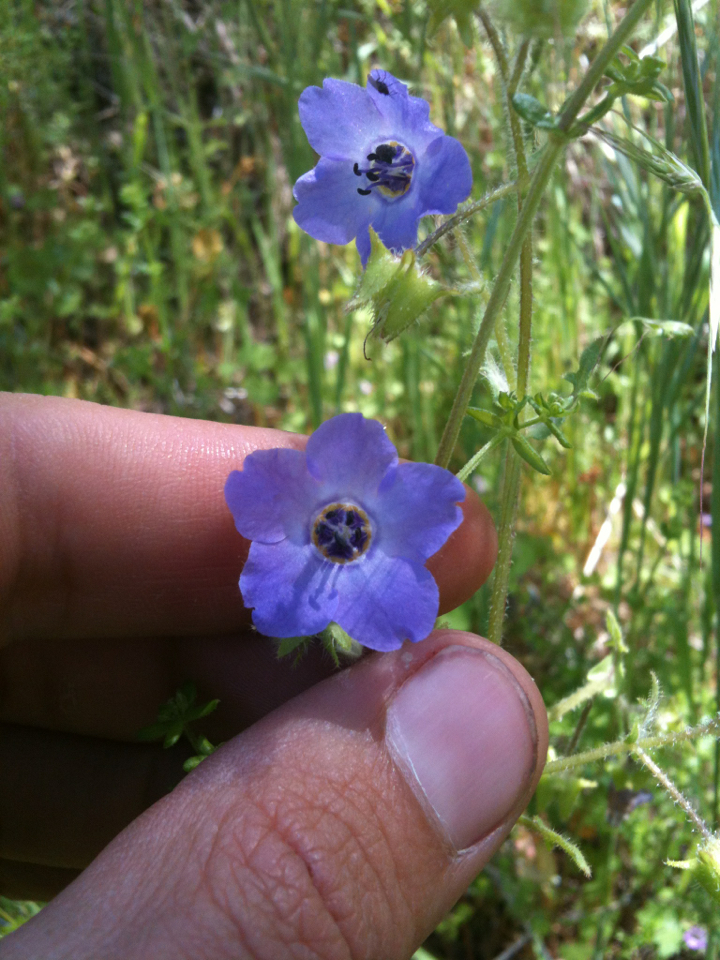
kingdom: Plantae
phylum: Tracheophyta
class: Magnoliopsida
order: Boraginales
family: Hydrophyllaceae
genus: Pholistoma
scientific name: Pholistoma auritum
